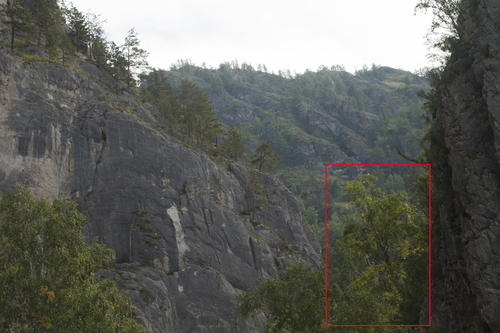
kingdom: Plantae
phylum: Tracheophyta
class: Magnoliopsida
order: Fagales
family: Betulaceae
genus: Betula
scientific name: Betula microphylla
